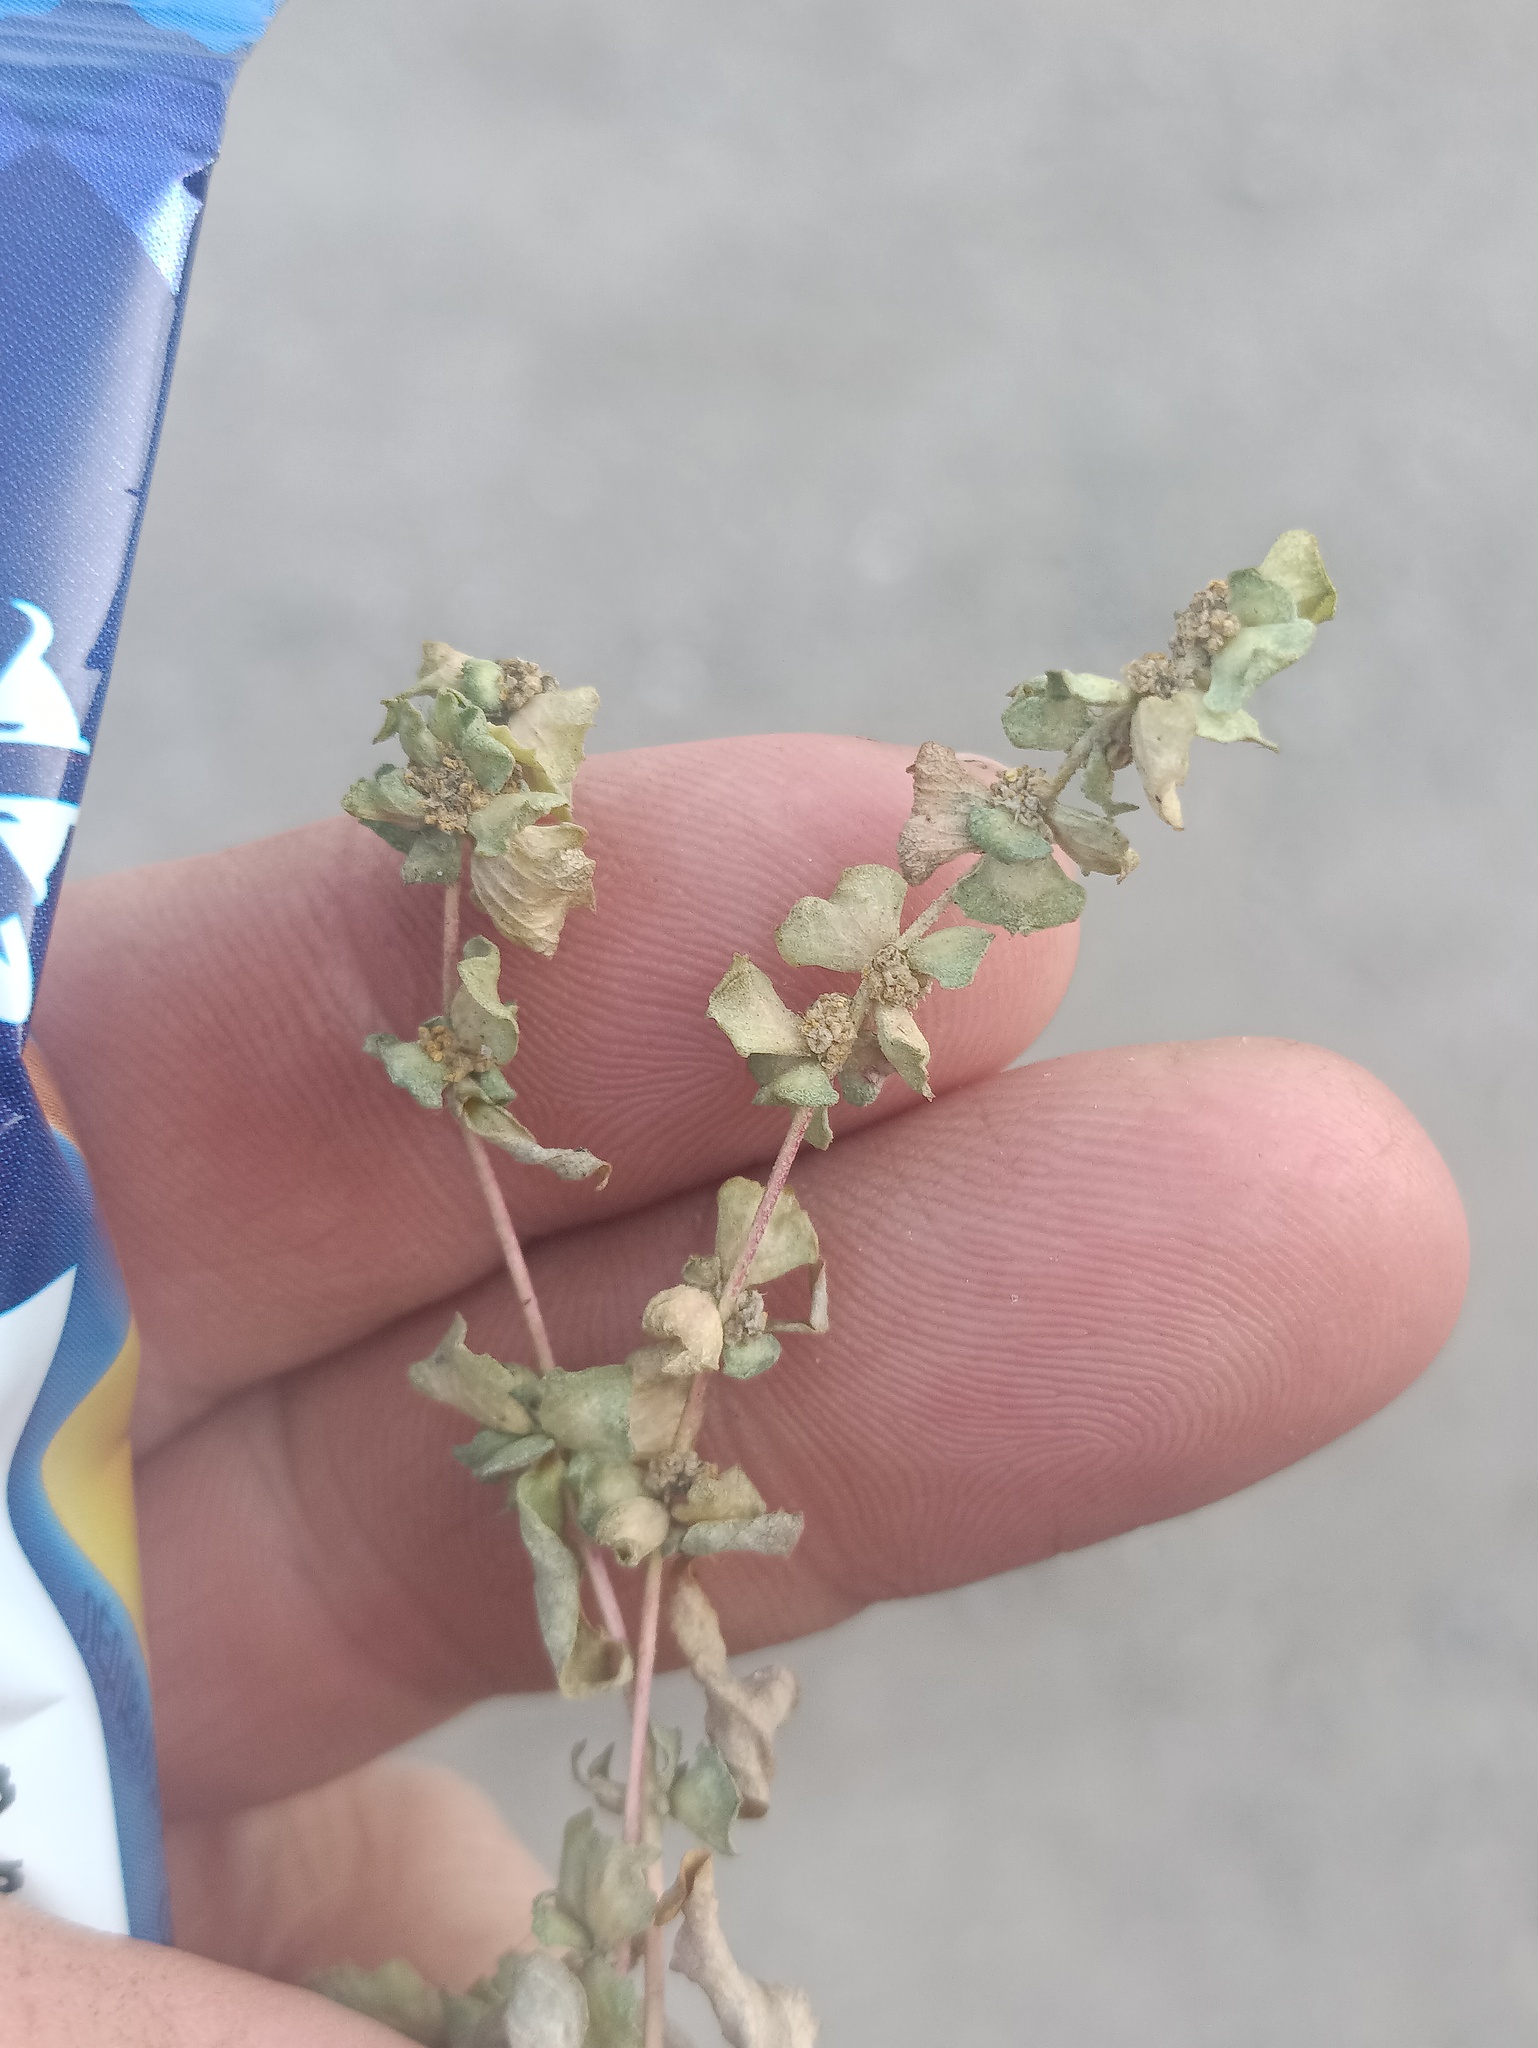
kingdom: Plantae
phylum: Tracheophyta
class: Magnoliopsida
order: Caryophyllales
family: Amaranthaceae
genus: Atriplex
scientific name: Atriplex tatarica
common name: Tatarian orache
